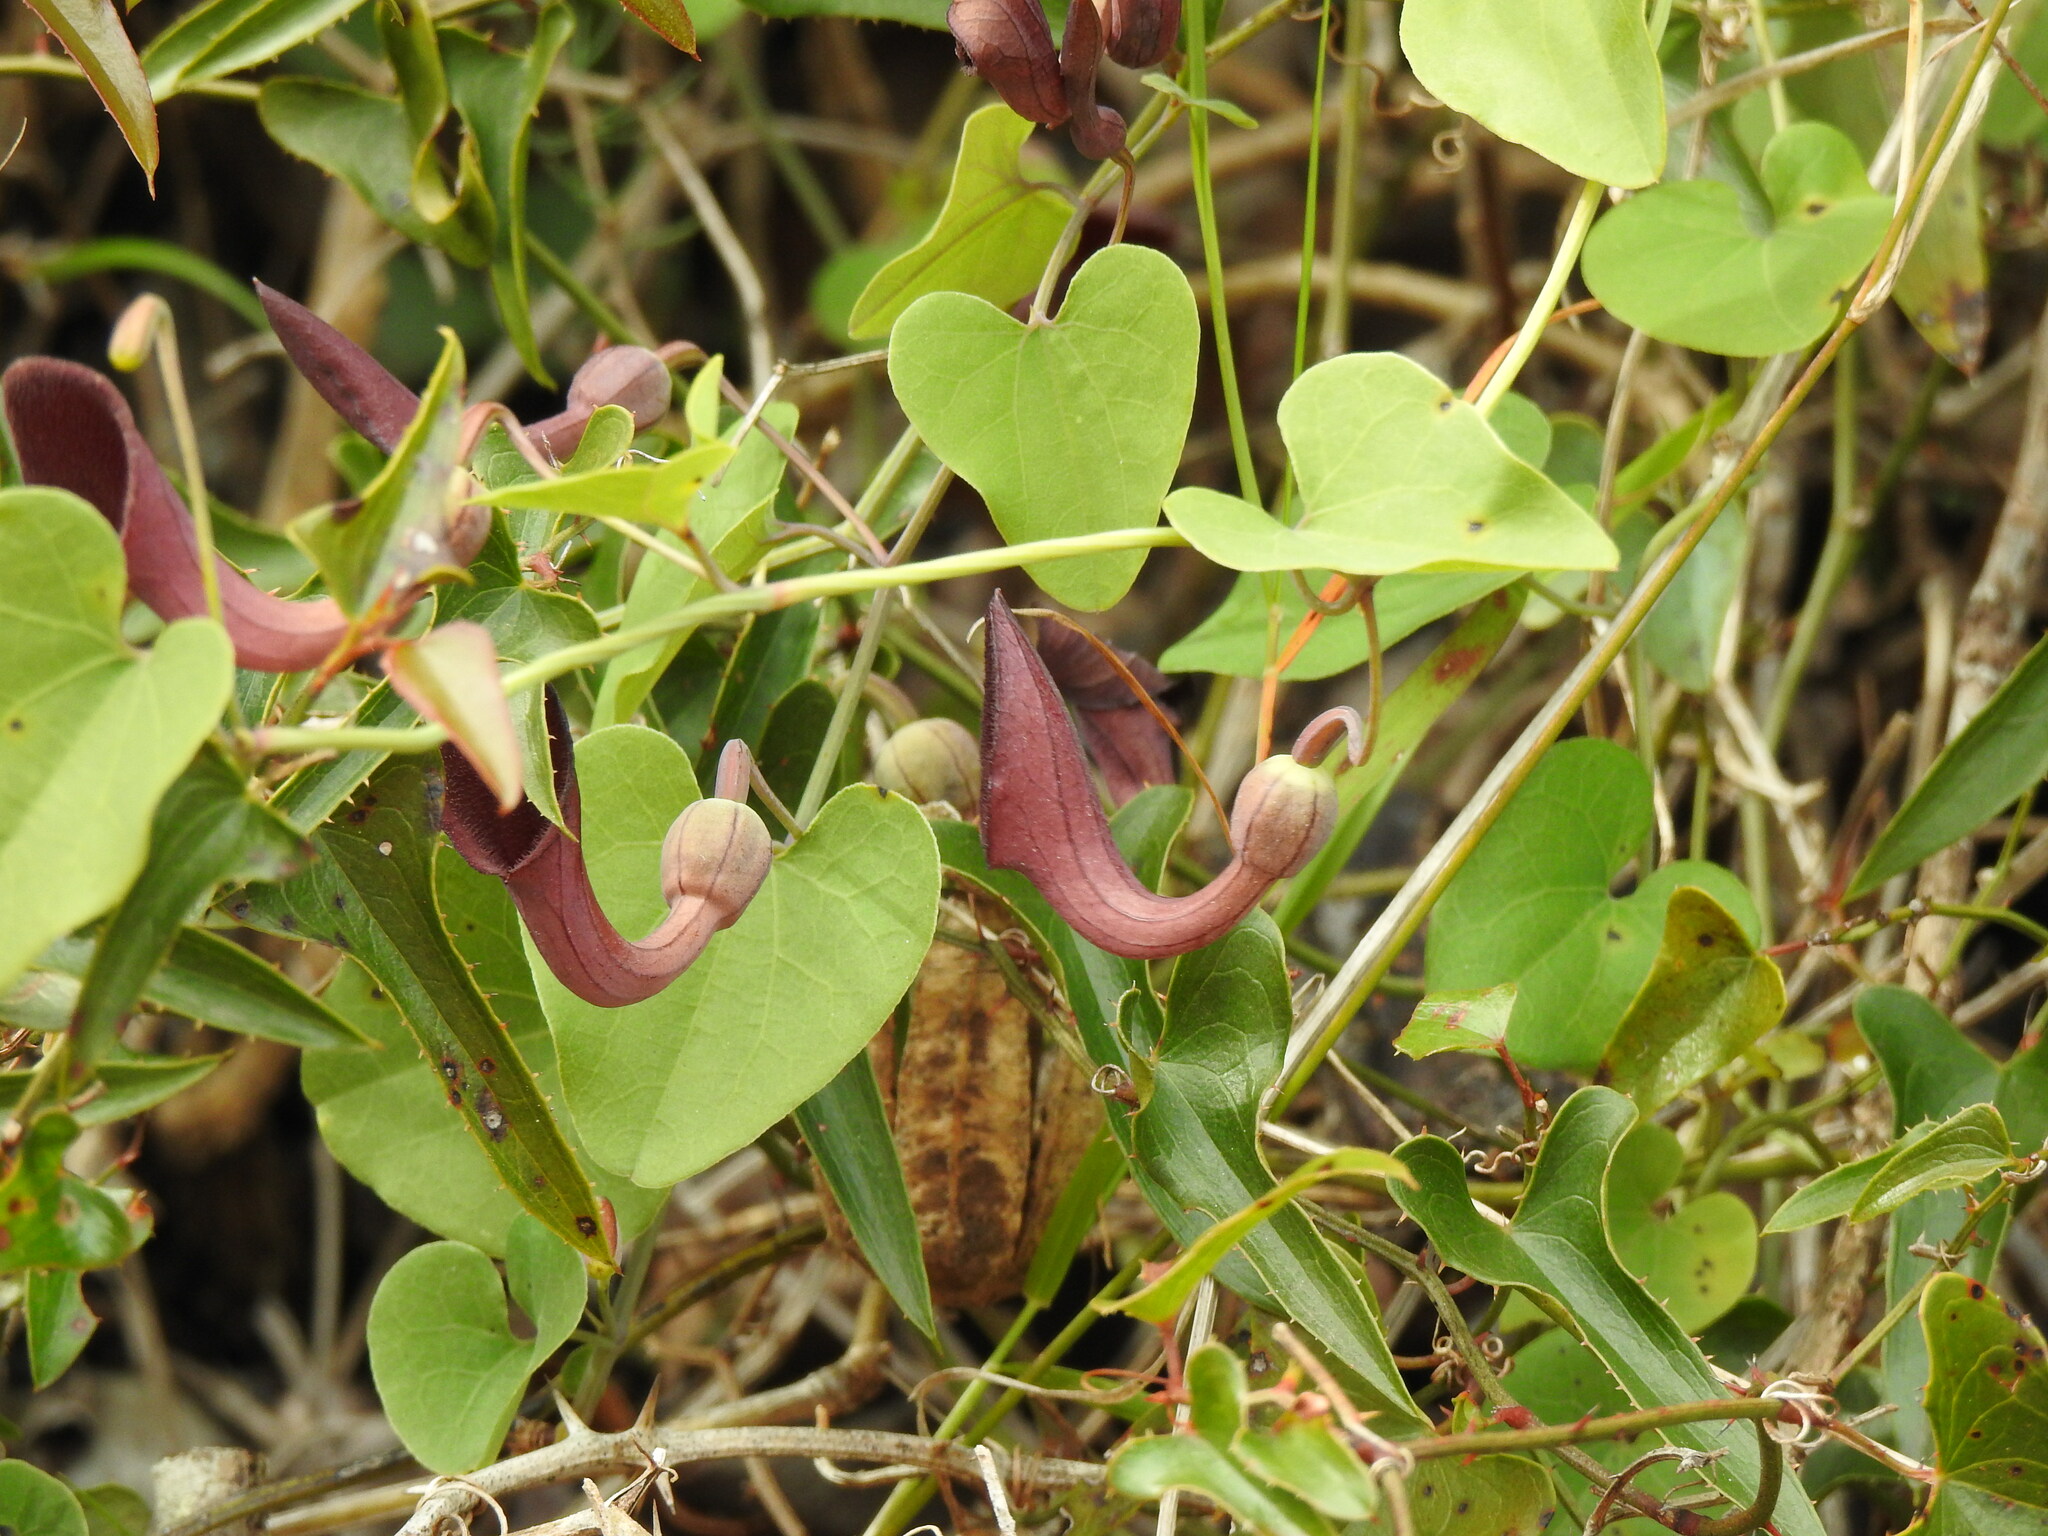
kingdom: Plantae
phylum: Tracheophyta
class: Magnoliopsida
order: Piperales
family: Aristolochiaceae
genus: Aristolochia
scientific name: Aristolochia baetica
